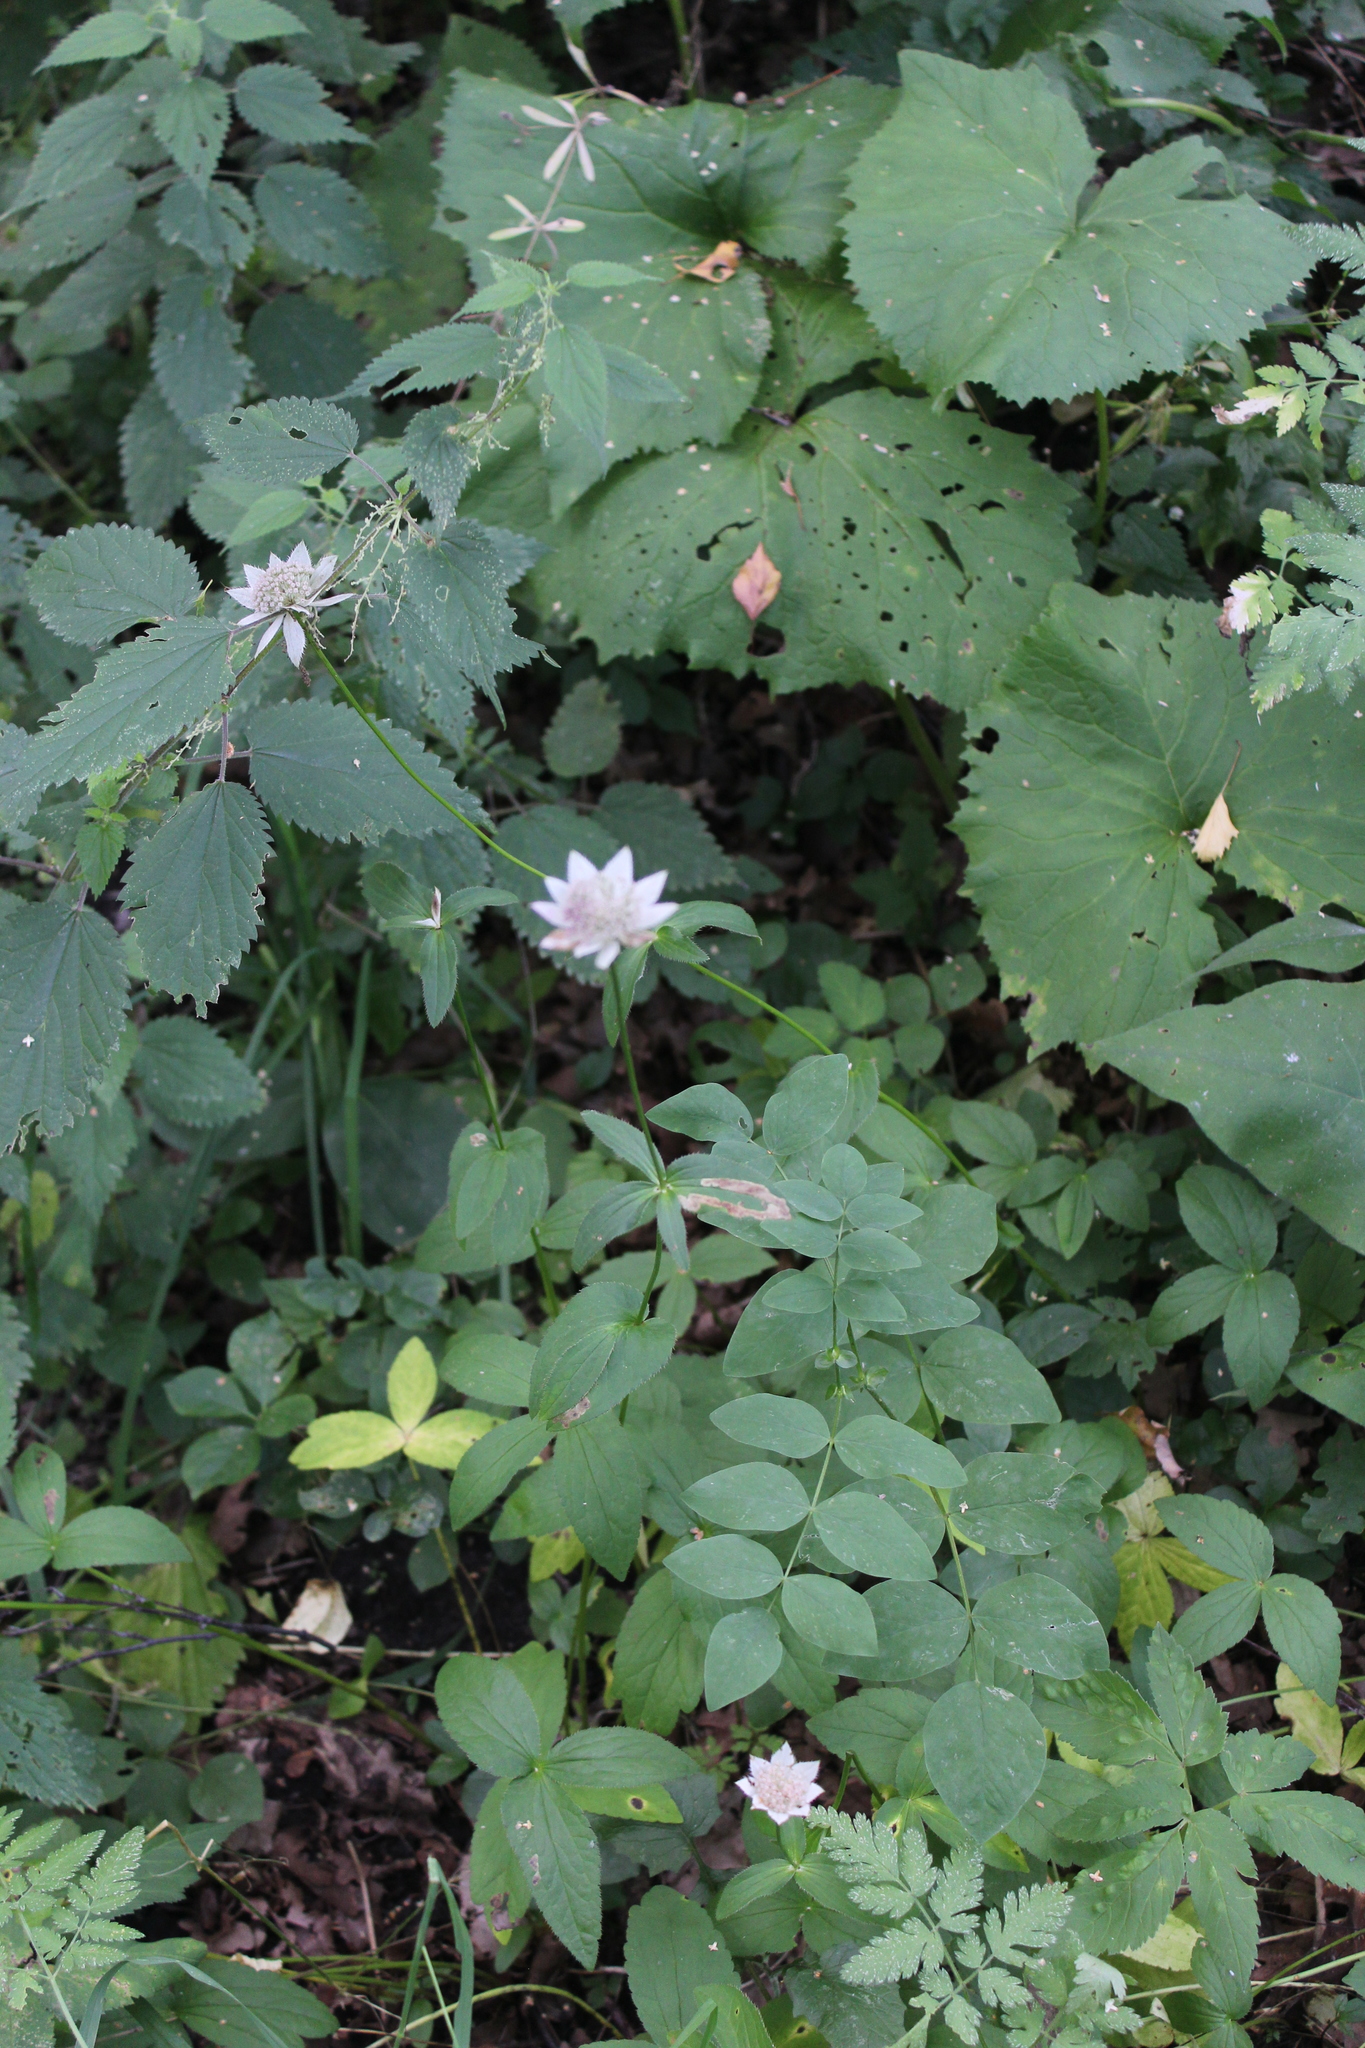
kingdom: Plantae
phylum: Tracheophyta
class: Magnoliopsida
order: Apiales
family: Apiaceae
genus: Astrantia
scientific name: Astrantia maxima
